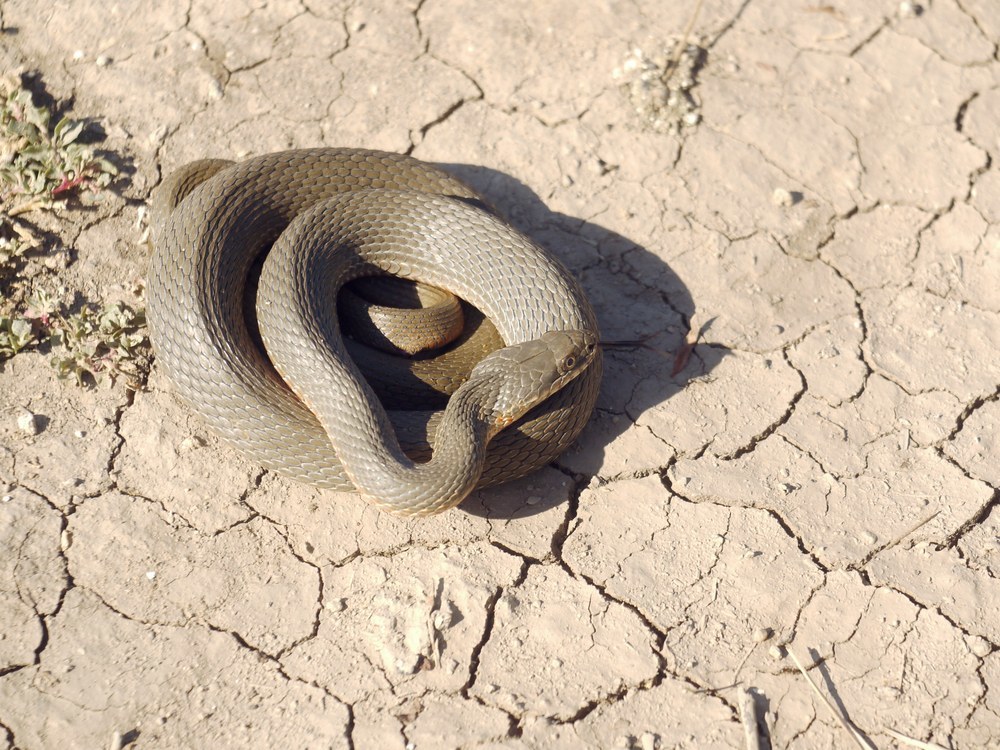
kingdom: Animalia
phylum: Chordata
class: Squamata
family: Colubridae
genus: Natrix
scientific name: Natrix tessellata
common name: Dice snake
